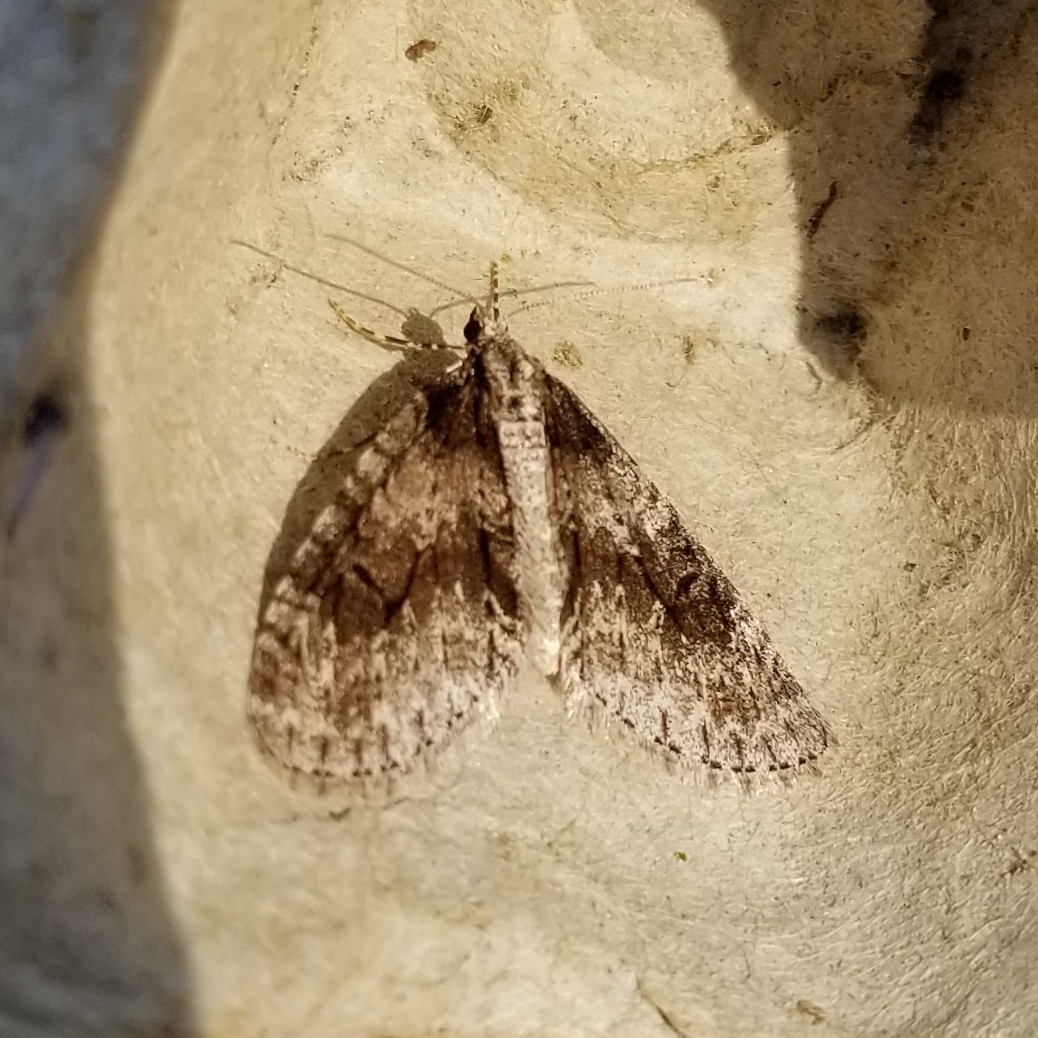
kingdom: Animalia
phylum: Arthropoda
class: Insecta
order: Lepidoptera
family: Geometridae
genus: Cladara
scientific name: Cladara limitaria
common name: Mottled gray carpet
